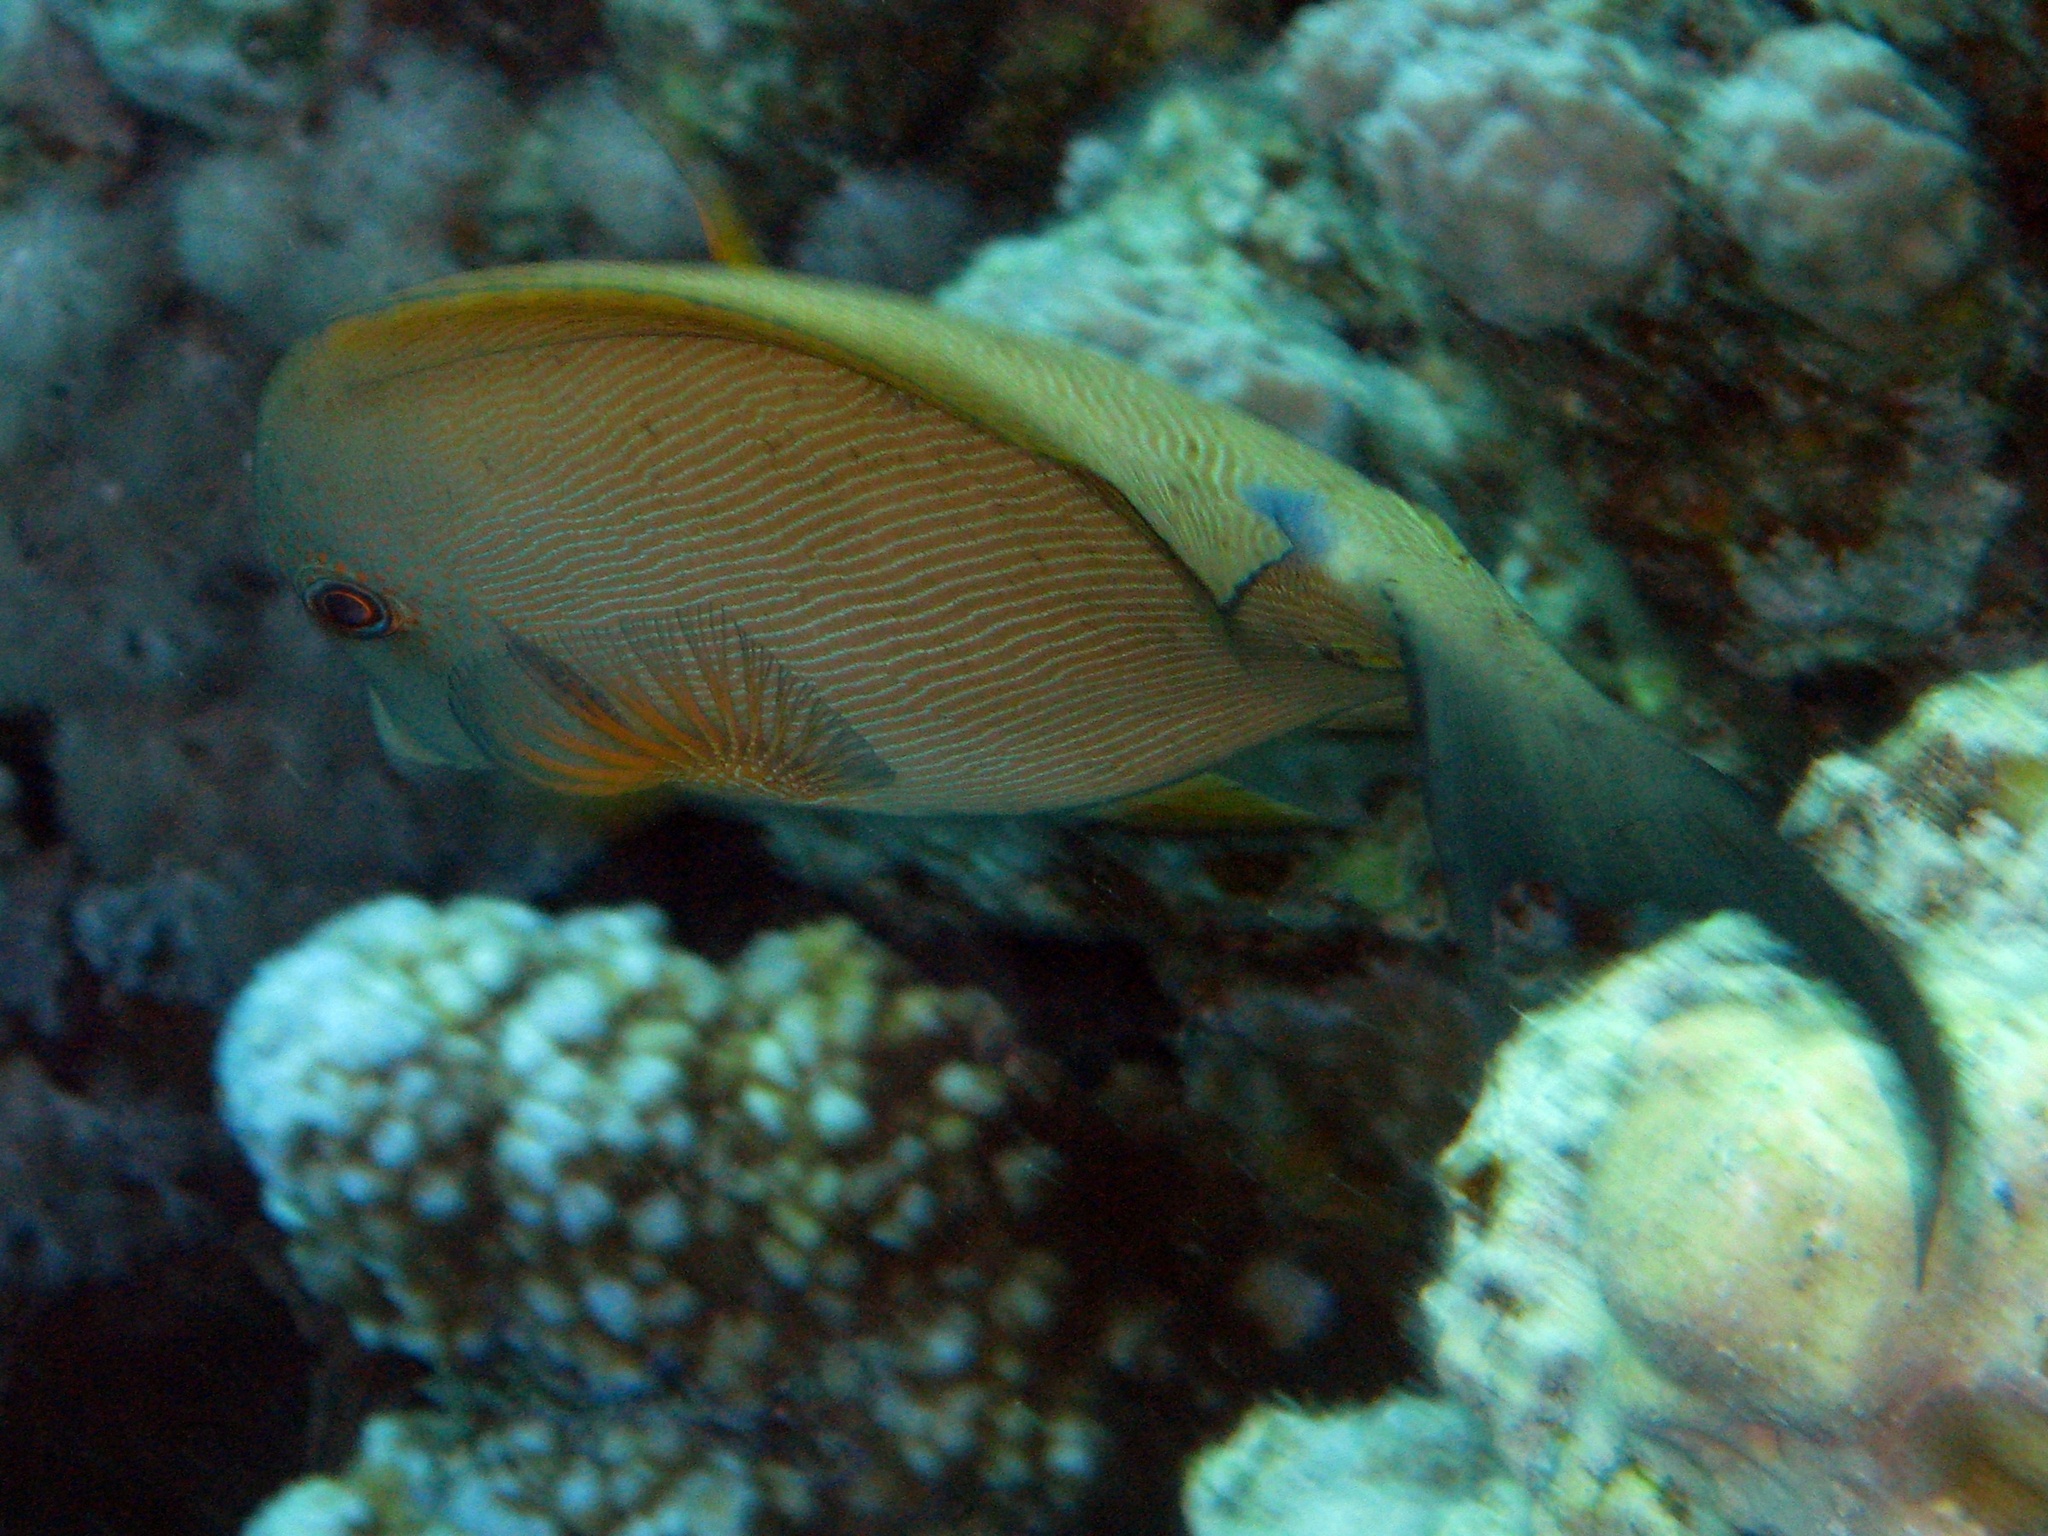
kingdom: Animalia
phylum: Chordata
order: Perciformes
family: Acanthuridae
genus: Ctenochaetus
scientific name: Ctenochaetus striatus
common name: Bristle-toothed surgeonfish
